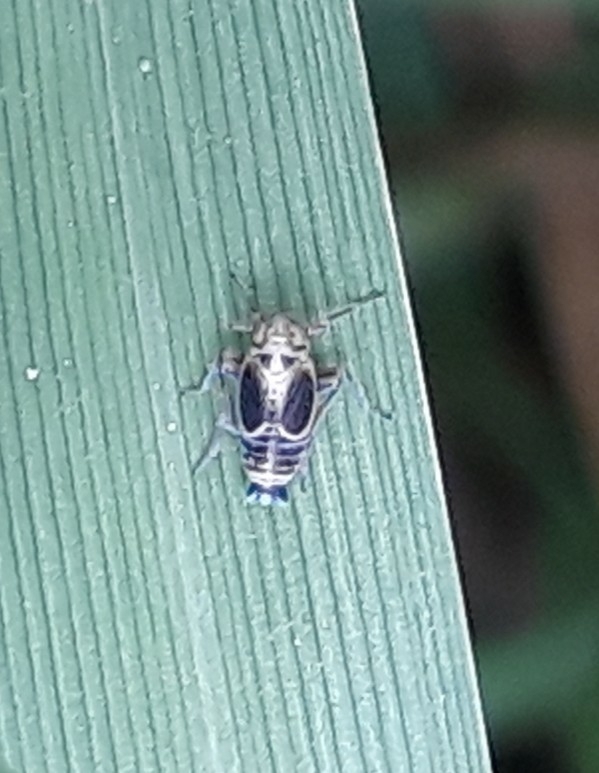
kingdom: Animalia
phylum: Arthropoda
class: Insecta
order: Hemiptera
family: Delphacidae
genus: Struebingianella
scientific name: Struebingianella lugubrina
